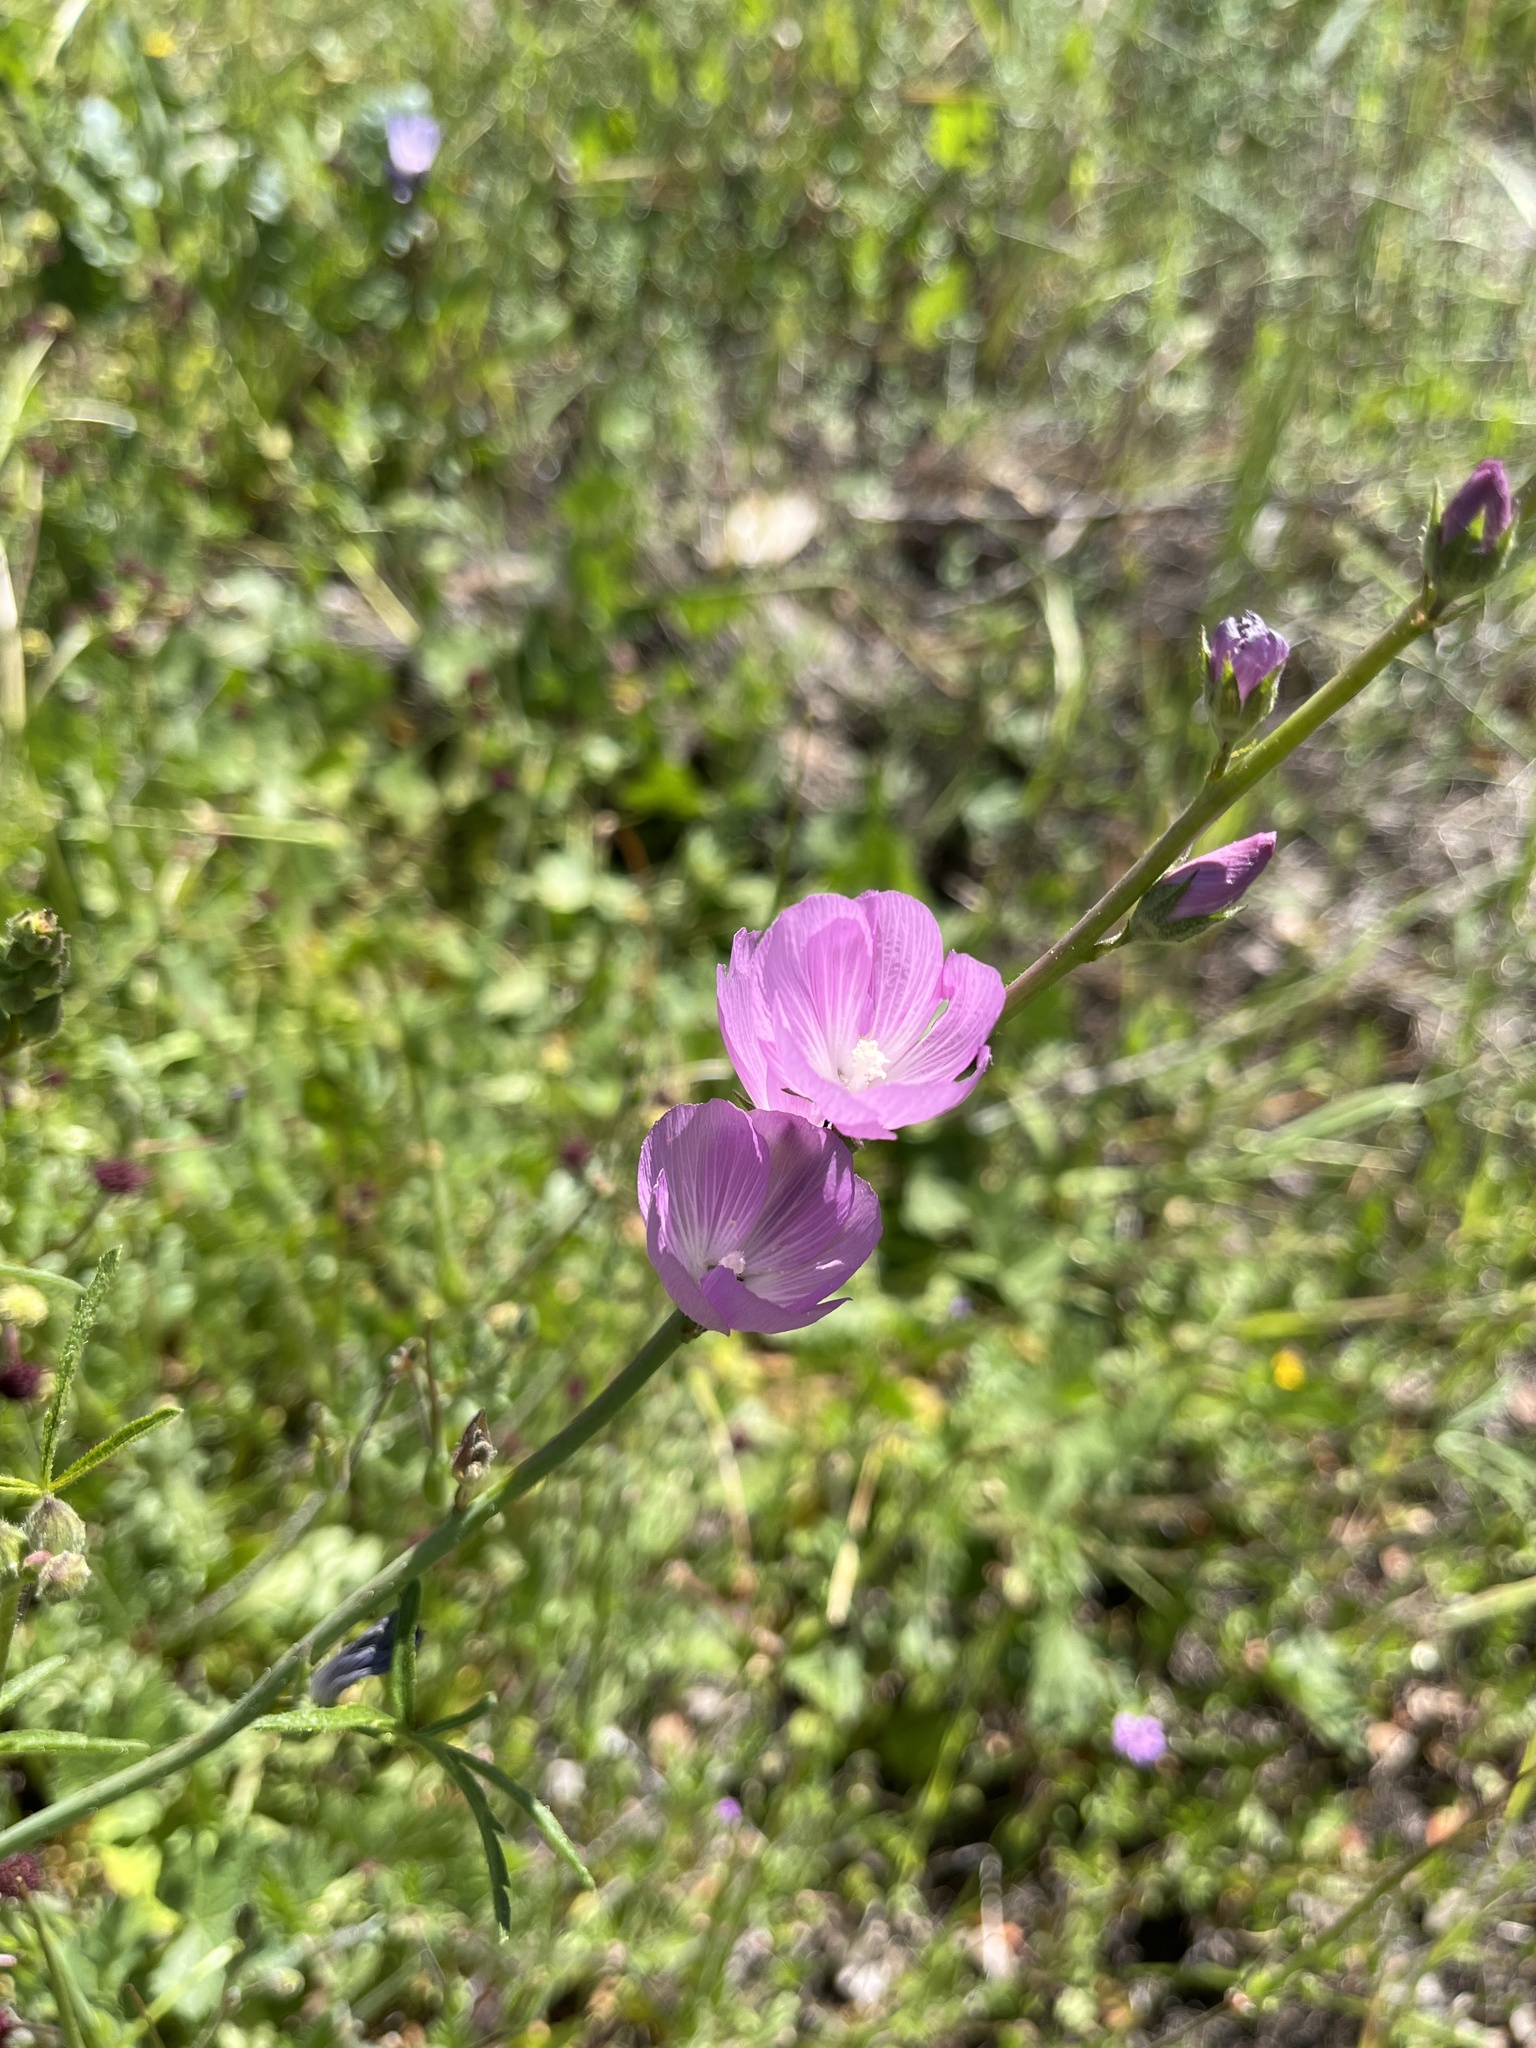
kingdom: Plantae
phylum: Tracheophyta
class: Magnoliopsida
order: Malvales
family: Malvaceae
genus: Sidalcea
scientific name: Sidalcea sparsifolia
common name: Southern checkerbloom
